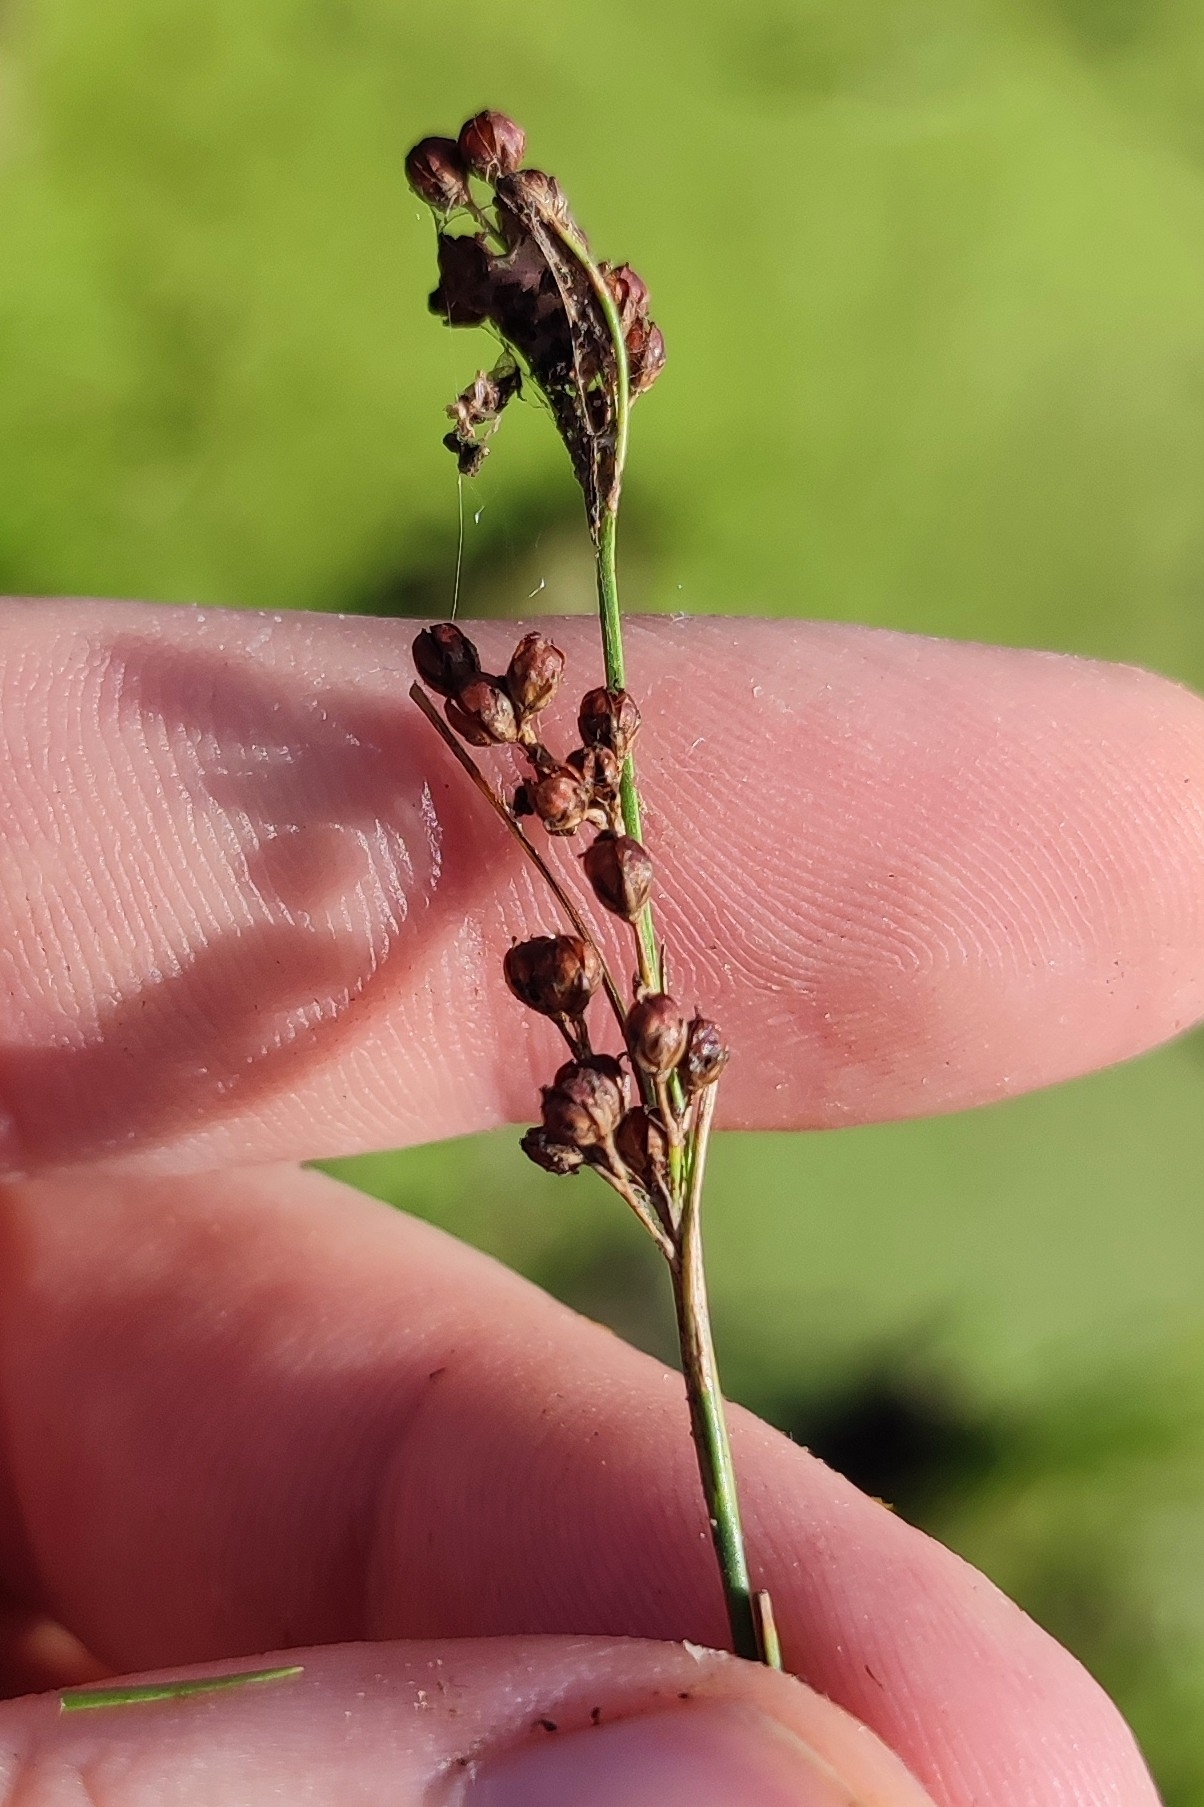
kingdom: Plantae
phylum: Tracheophyta
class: Liliopsida
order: Poales
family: Juncaceae
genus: Juncus
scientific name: Juncus compressus
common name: Round-fruited rush
